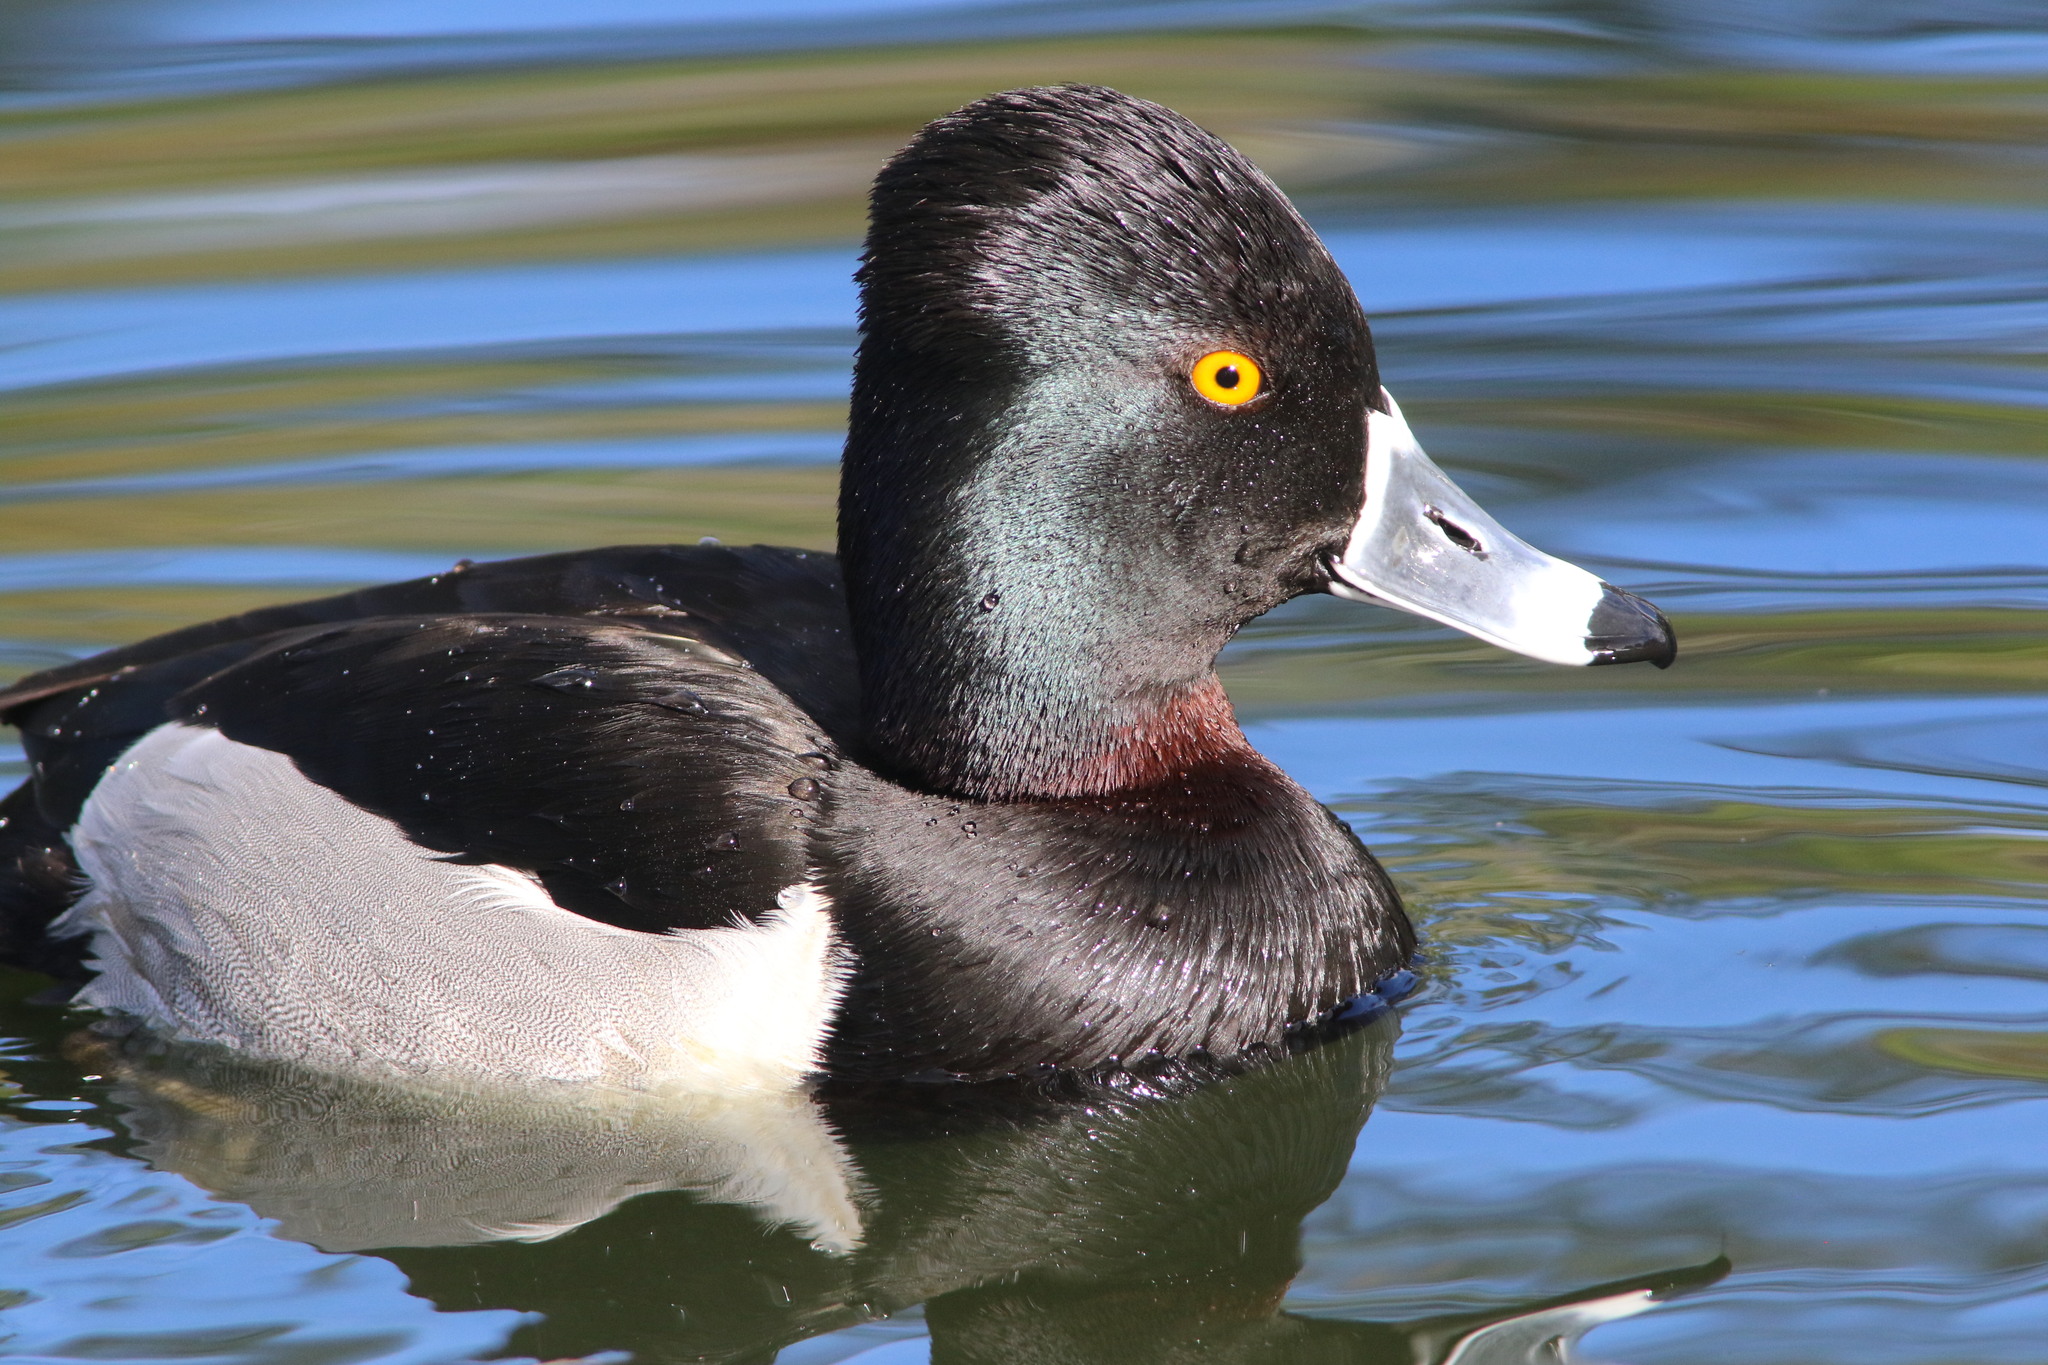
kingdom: Animalia
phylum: Chordata
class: Aves
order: Anseriformes
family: Anatidae
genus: Aythya
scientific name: Aythya collaris
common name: Ring-necked duck
